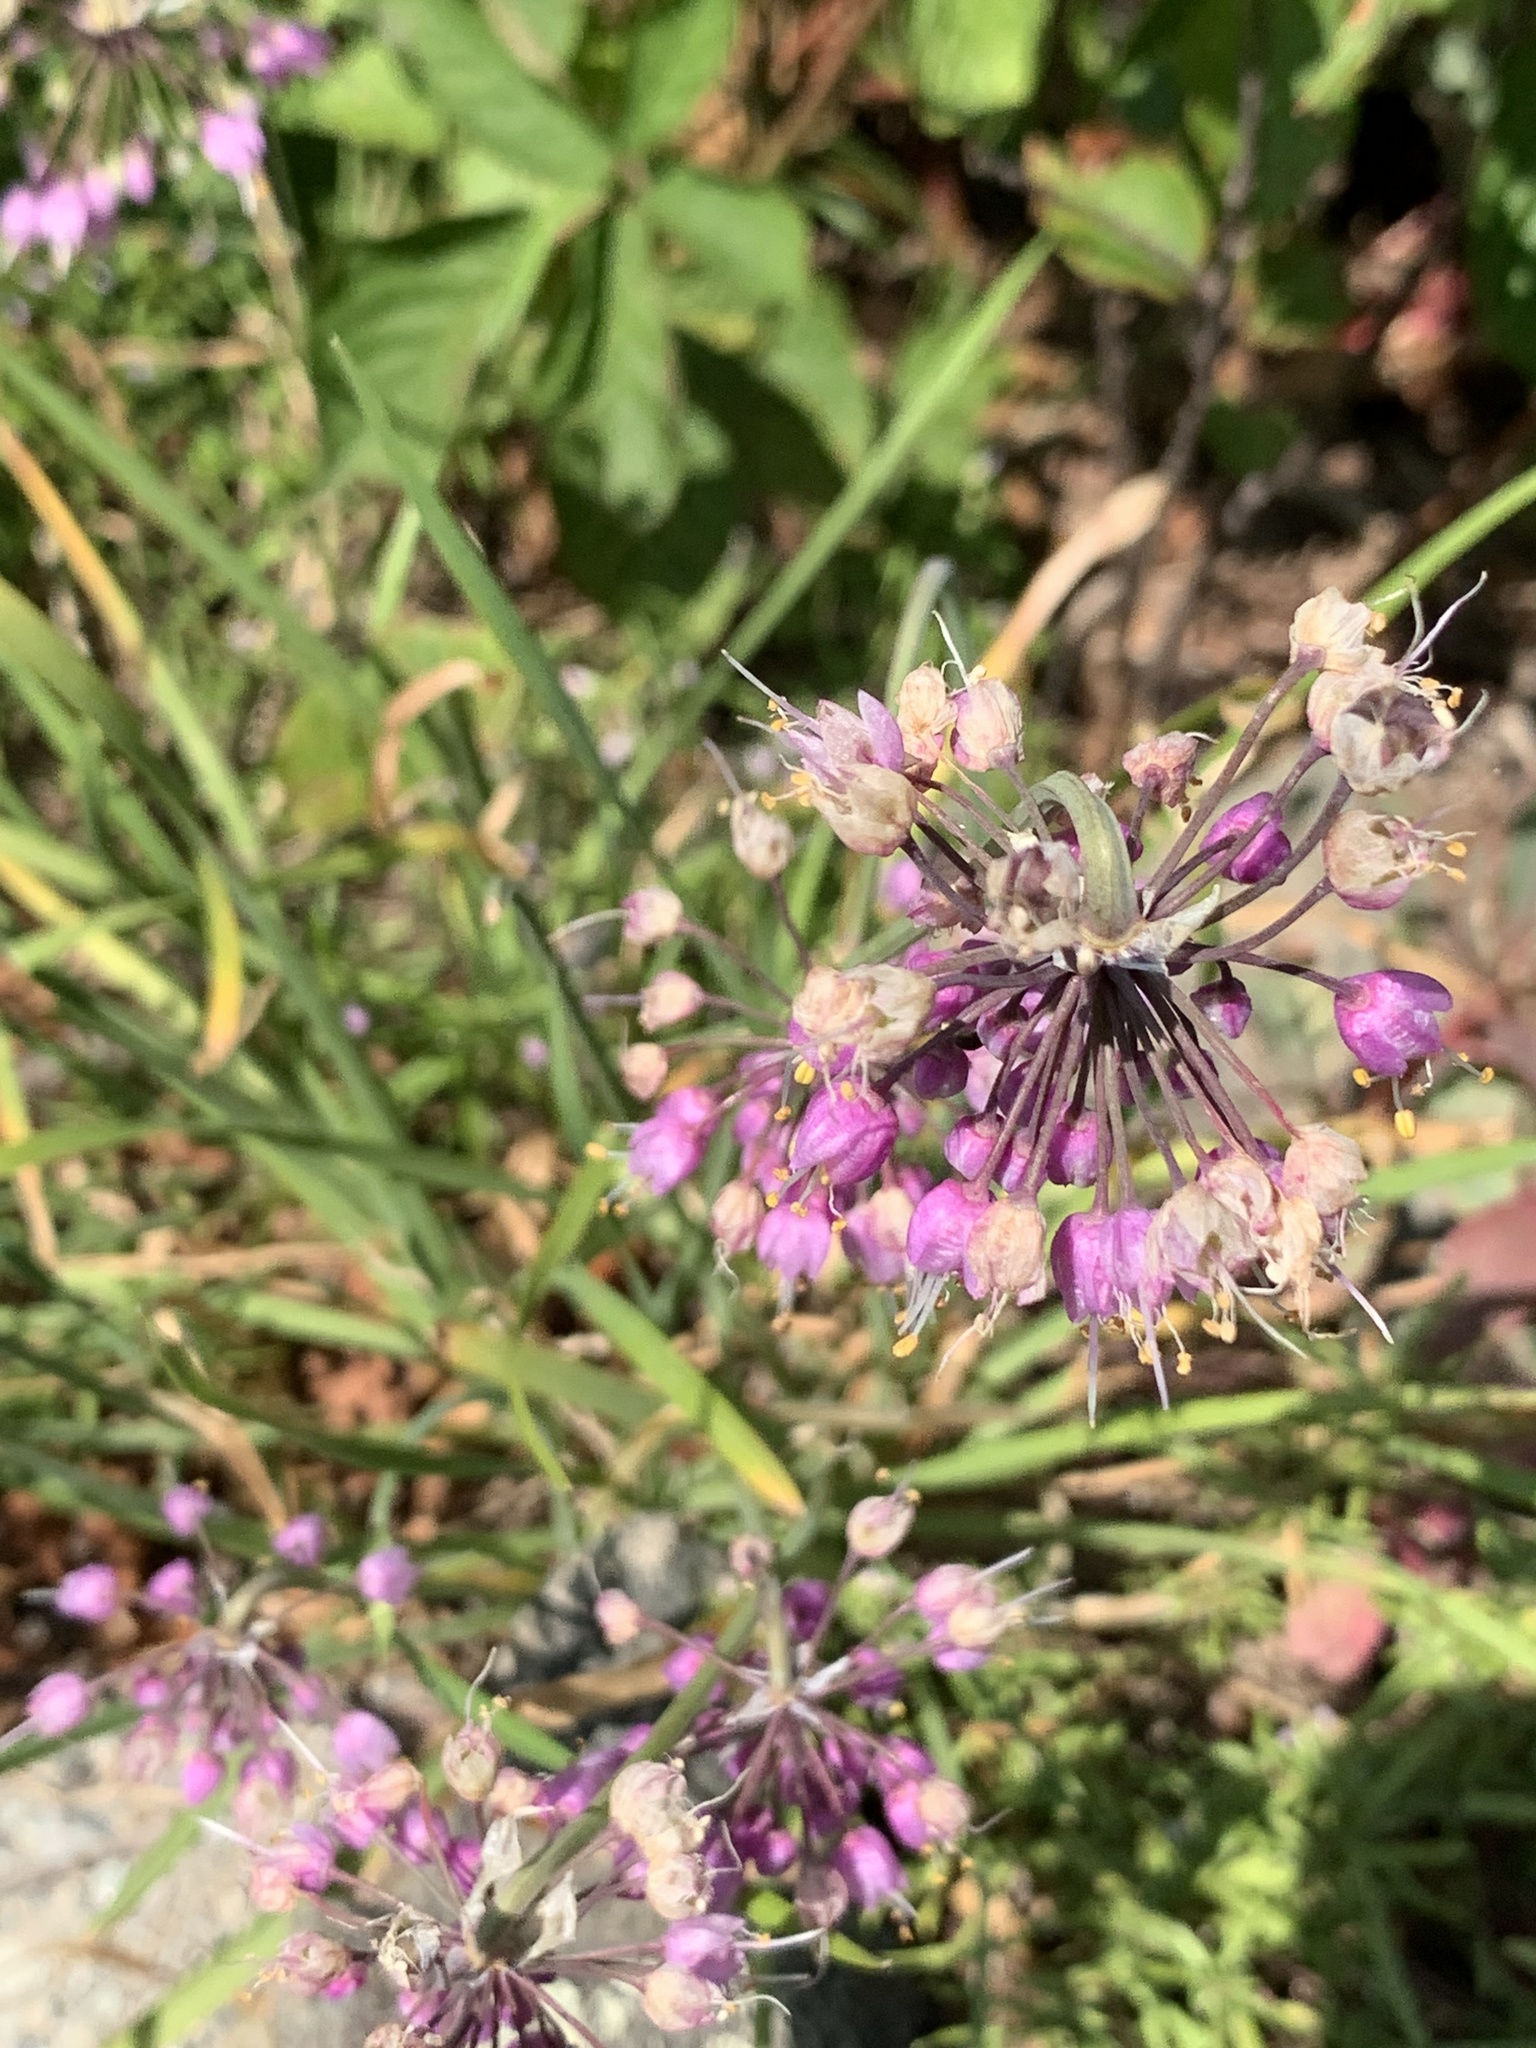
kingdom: Plantae
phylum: Tracheophyta
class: Liliopsida
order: Asparagales
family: Amaryllidaceae
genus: Allium
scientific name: Allium cernuum
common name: Nodding onion
